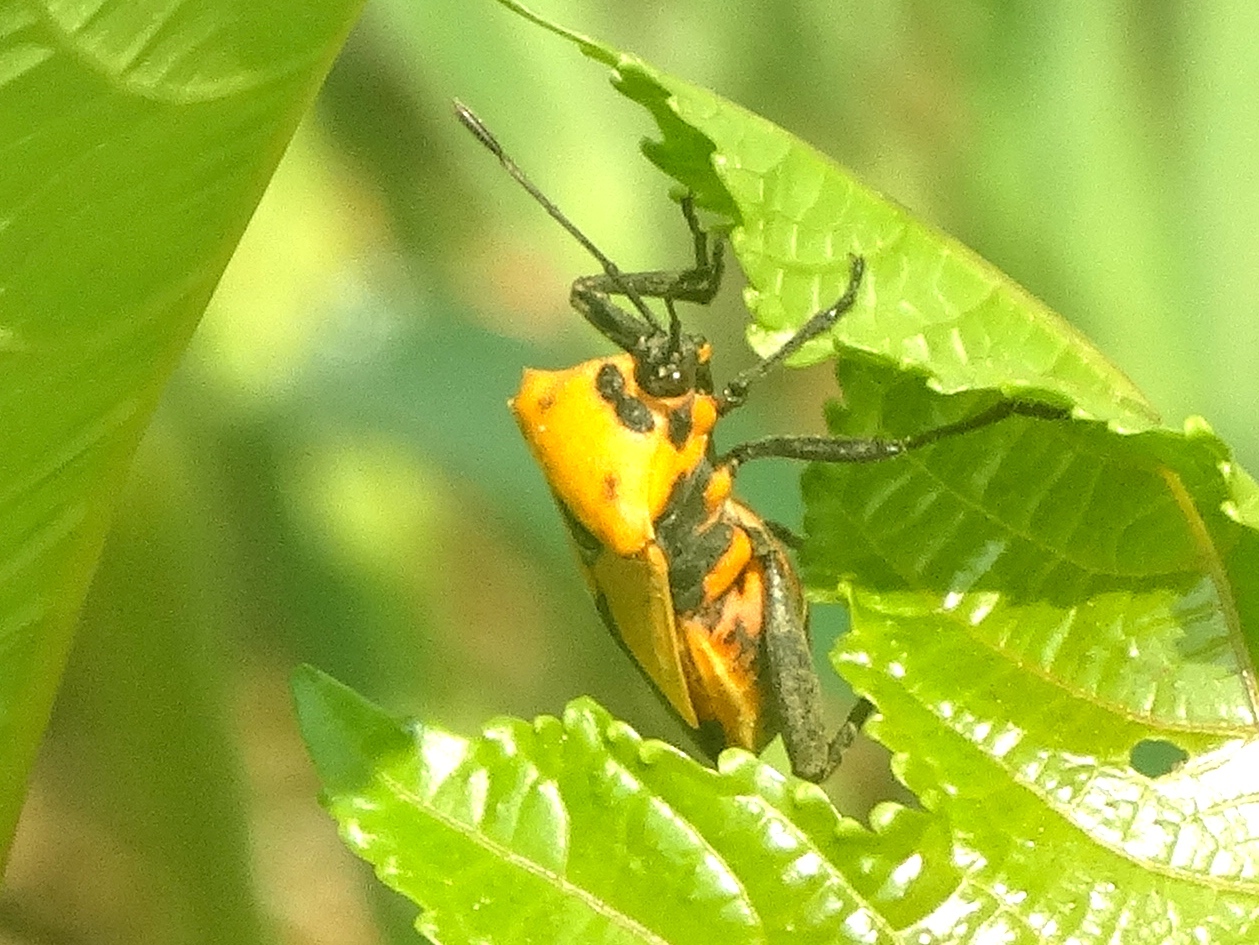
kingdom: Animalia
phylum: Arthropoda
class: Insecta
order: Hemiptera
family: Coreidae
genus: Sagotylus
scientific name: Sagotylus confluens
